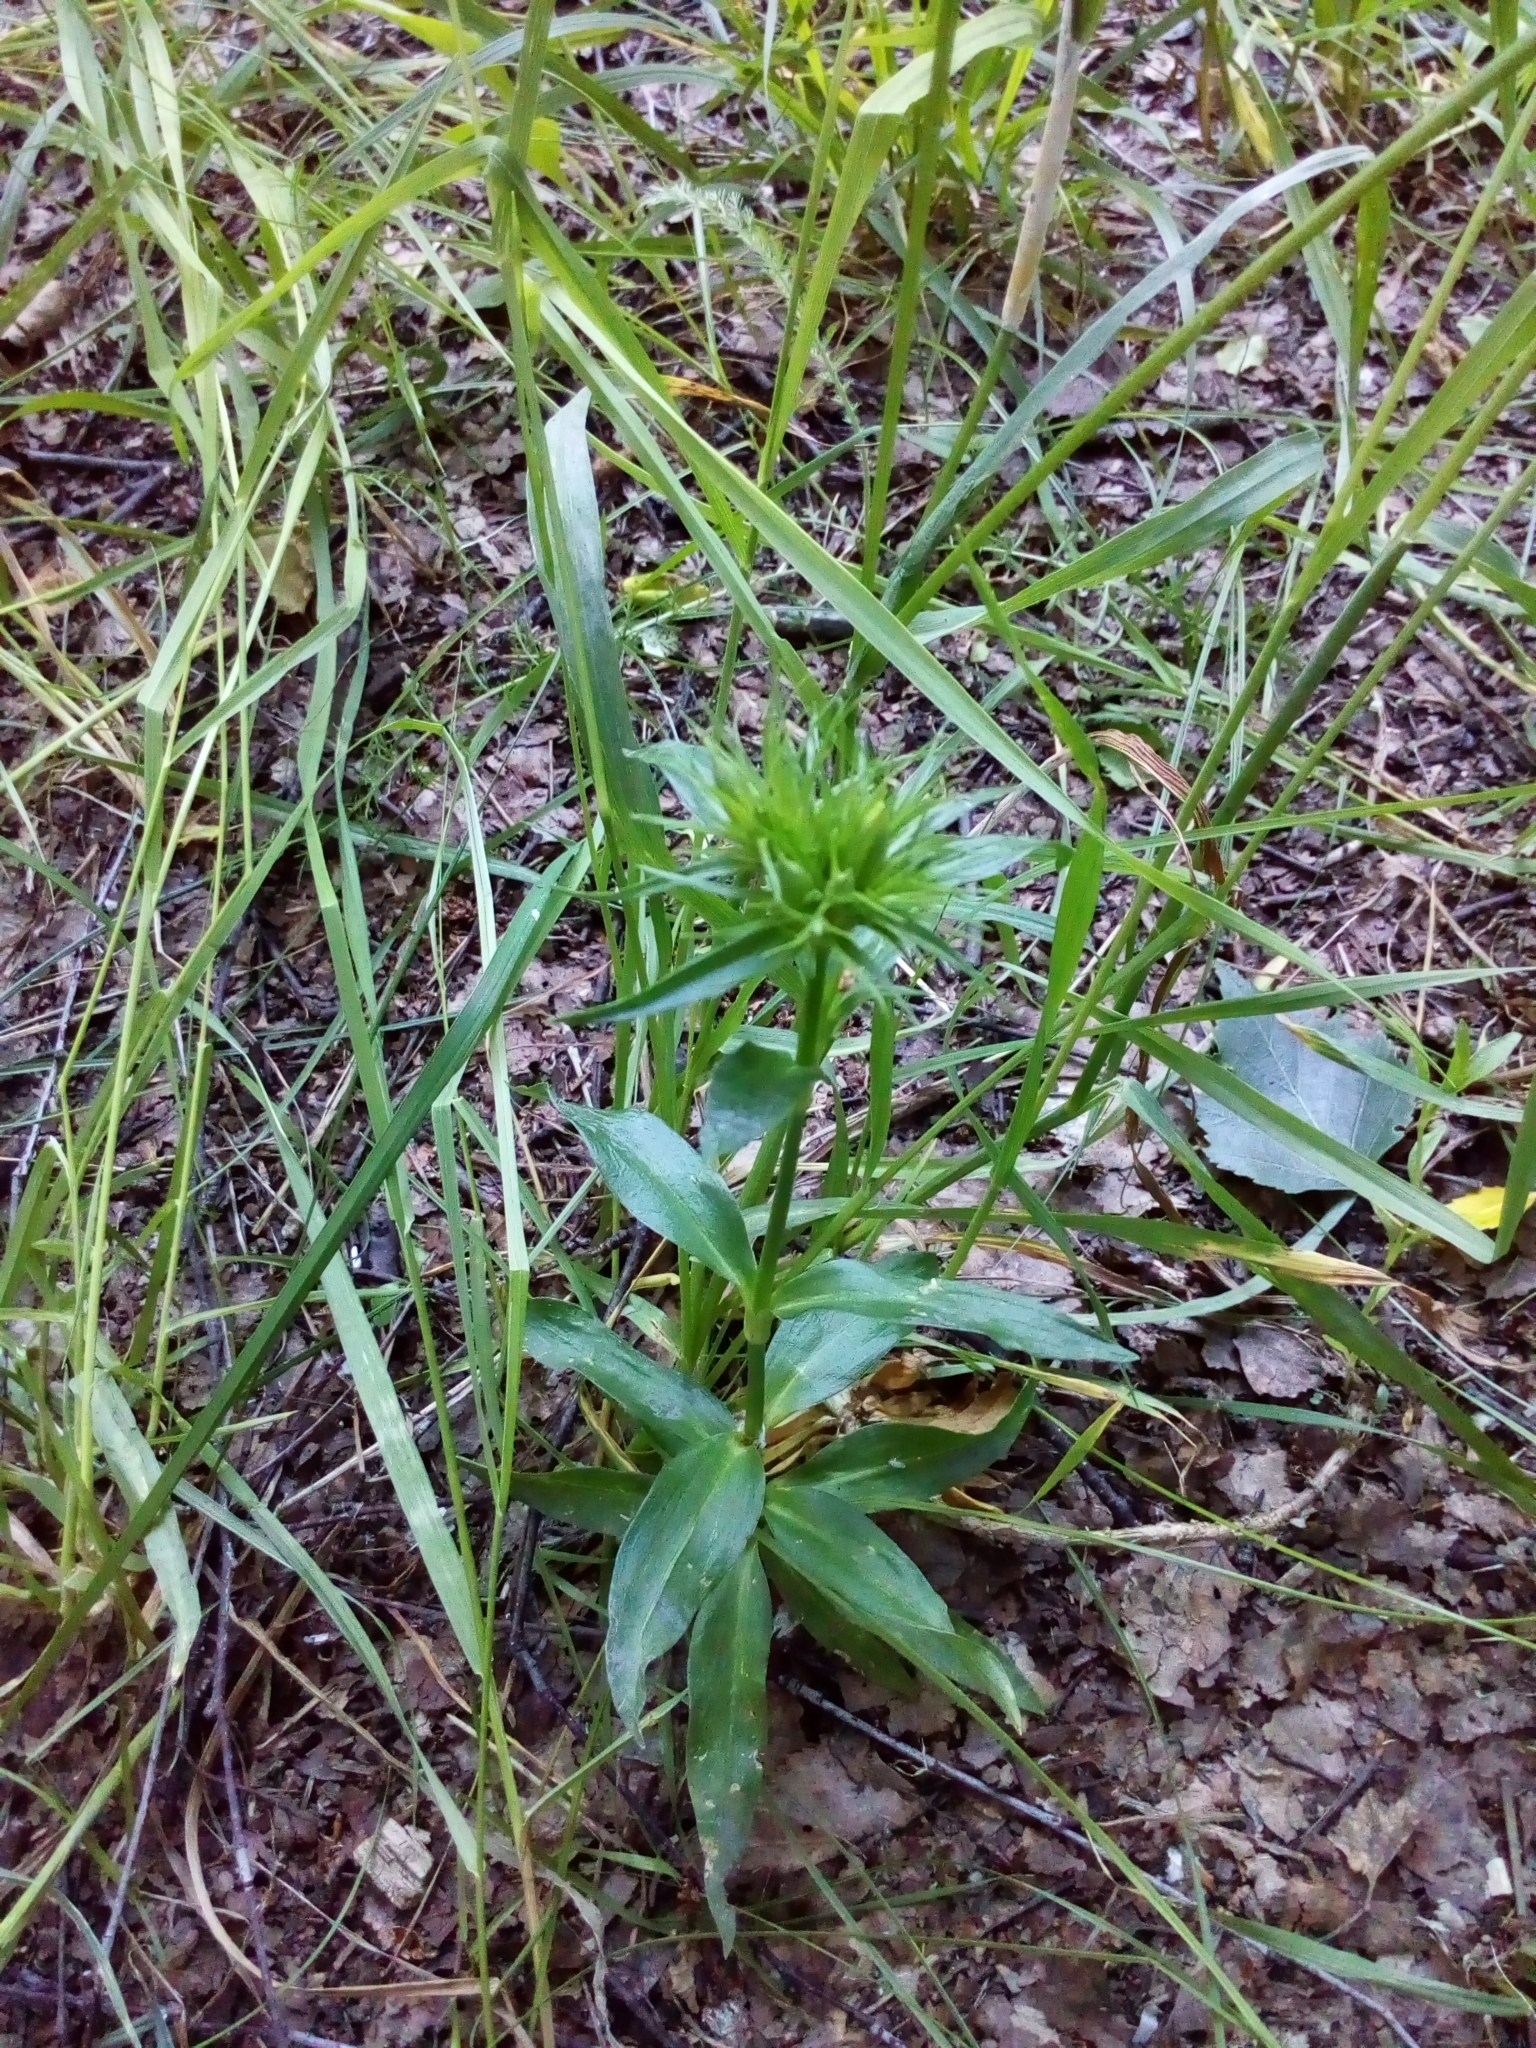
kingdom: Plantae
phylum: Tracheophyta
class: Magnoliopsida
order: Caryophyllales
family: Caryophyllaceae
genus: Dianthus
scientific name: Dianthus barbatus
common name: Sweet-william
